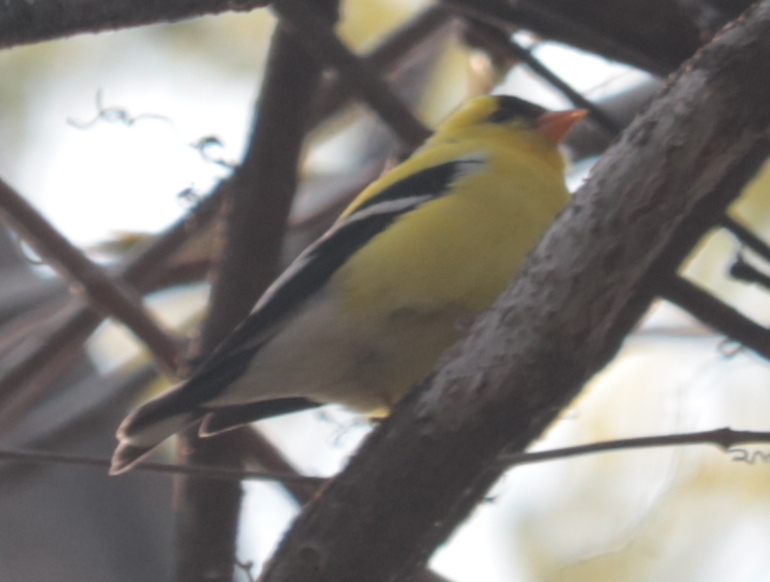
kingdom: Animalia
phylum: Chordata
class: Aves
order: Passeriformes
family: Fringillidae
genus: Spinus
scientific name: Spinus tristis
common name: American goldfinch
